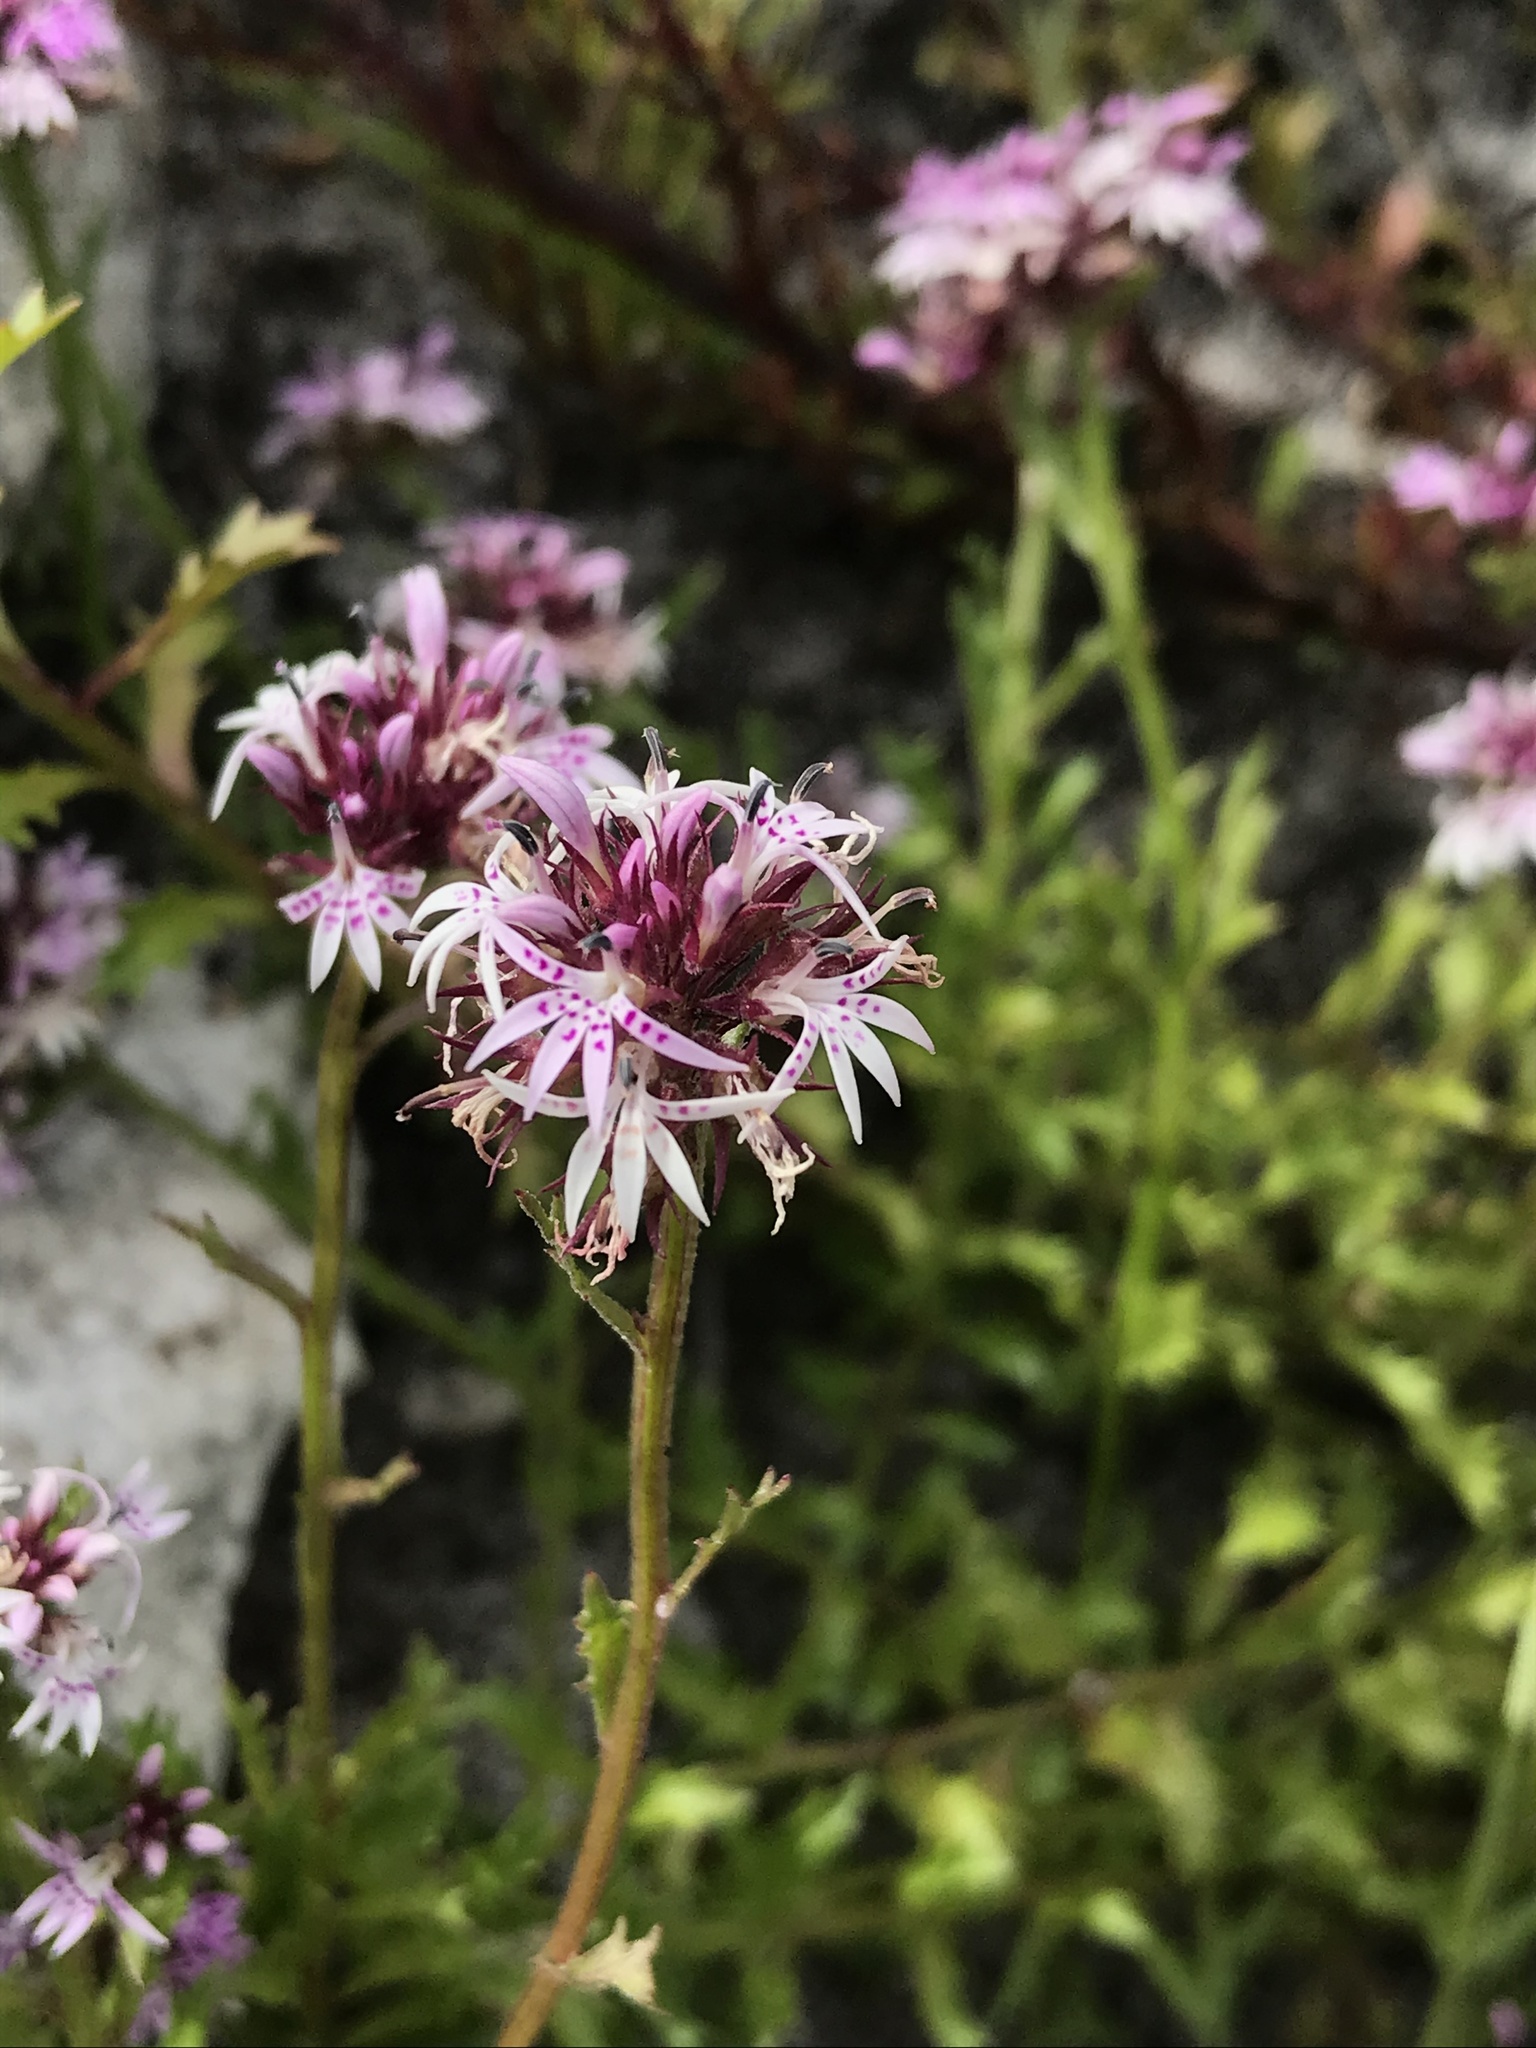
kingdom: Plantae
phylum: Tracheophyta
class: Magnoliopsida
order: Asterales
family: Campanulaceae
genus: Lobelia
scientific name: Lobelia jasionoides
